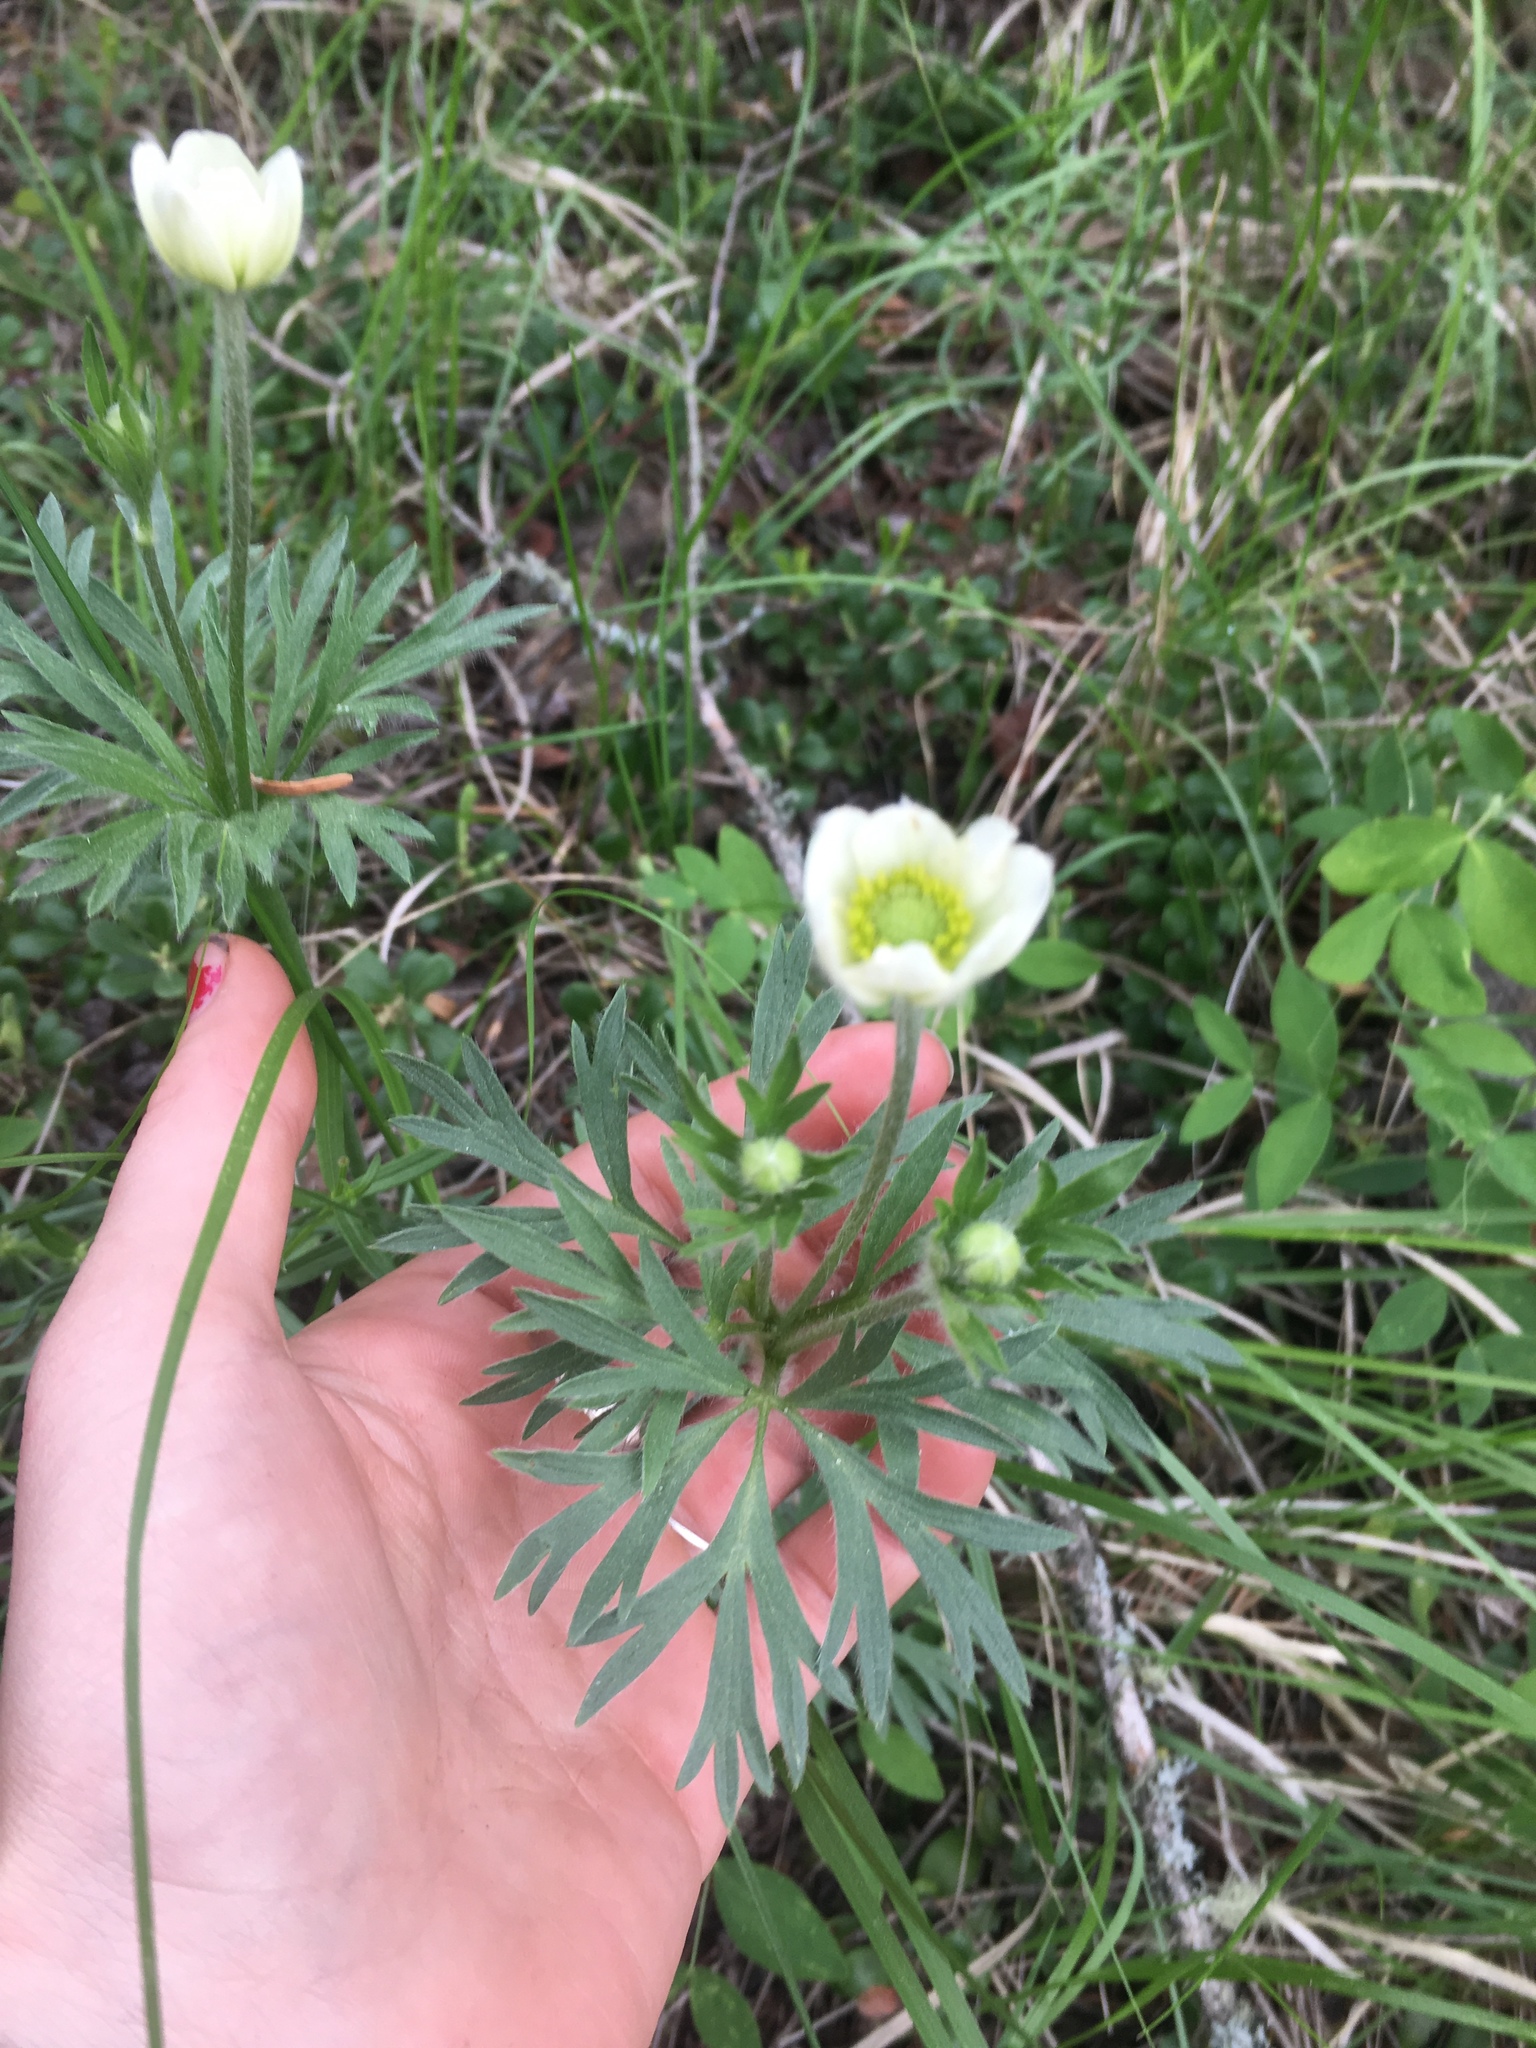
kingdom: Plantae
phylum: Tracheophyta
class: Magnoliopsida
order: Ranunculales
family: Ranunculaceae
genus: Anemone
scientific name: Anemone multifida
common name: Bird's-foot anemone
